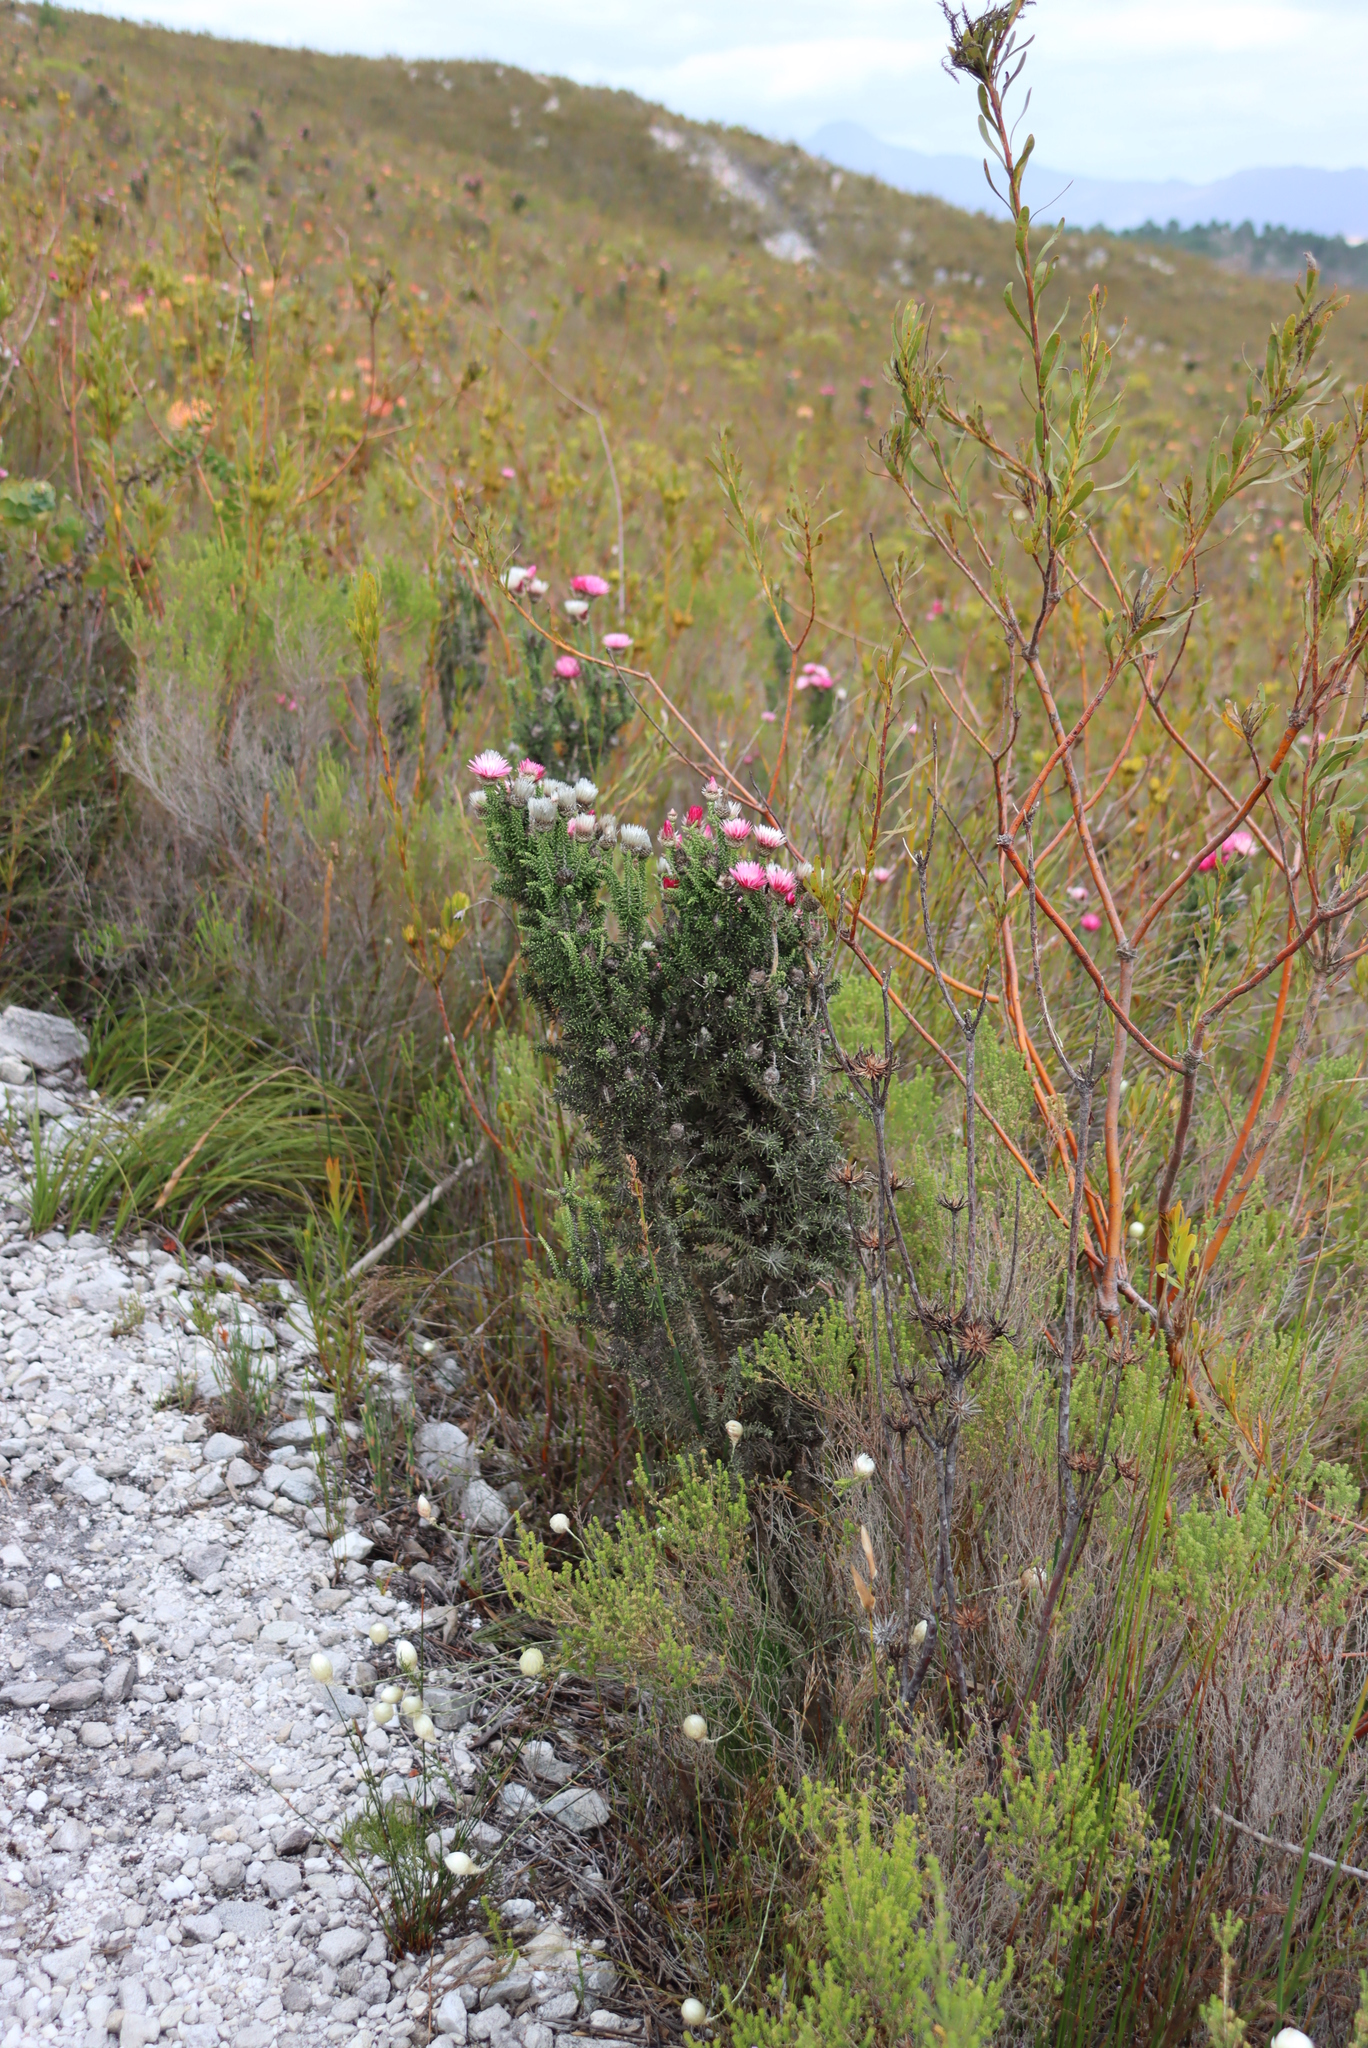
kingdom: Plantae
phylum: Tracheophyta
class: Magnoliopsida
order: Asterales
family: Asteraceae
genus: Phaenocoma
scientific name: Phaenocoma prolifera
